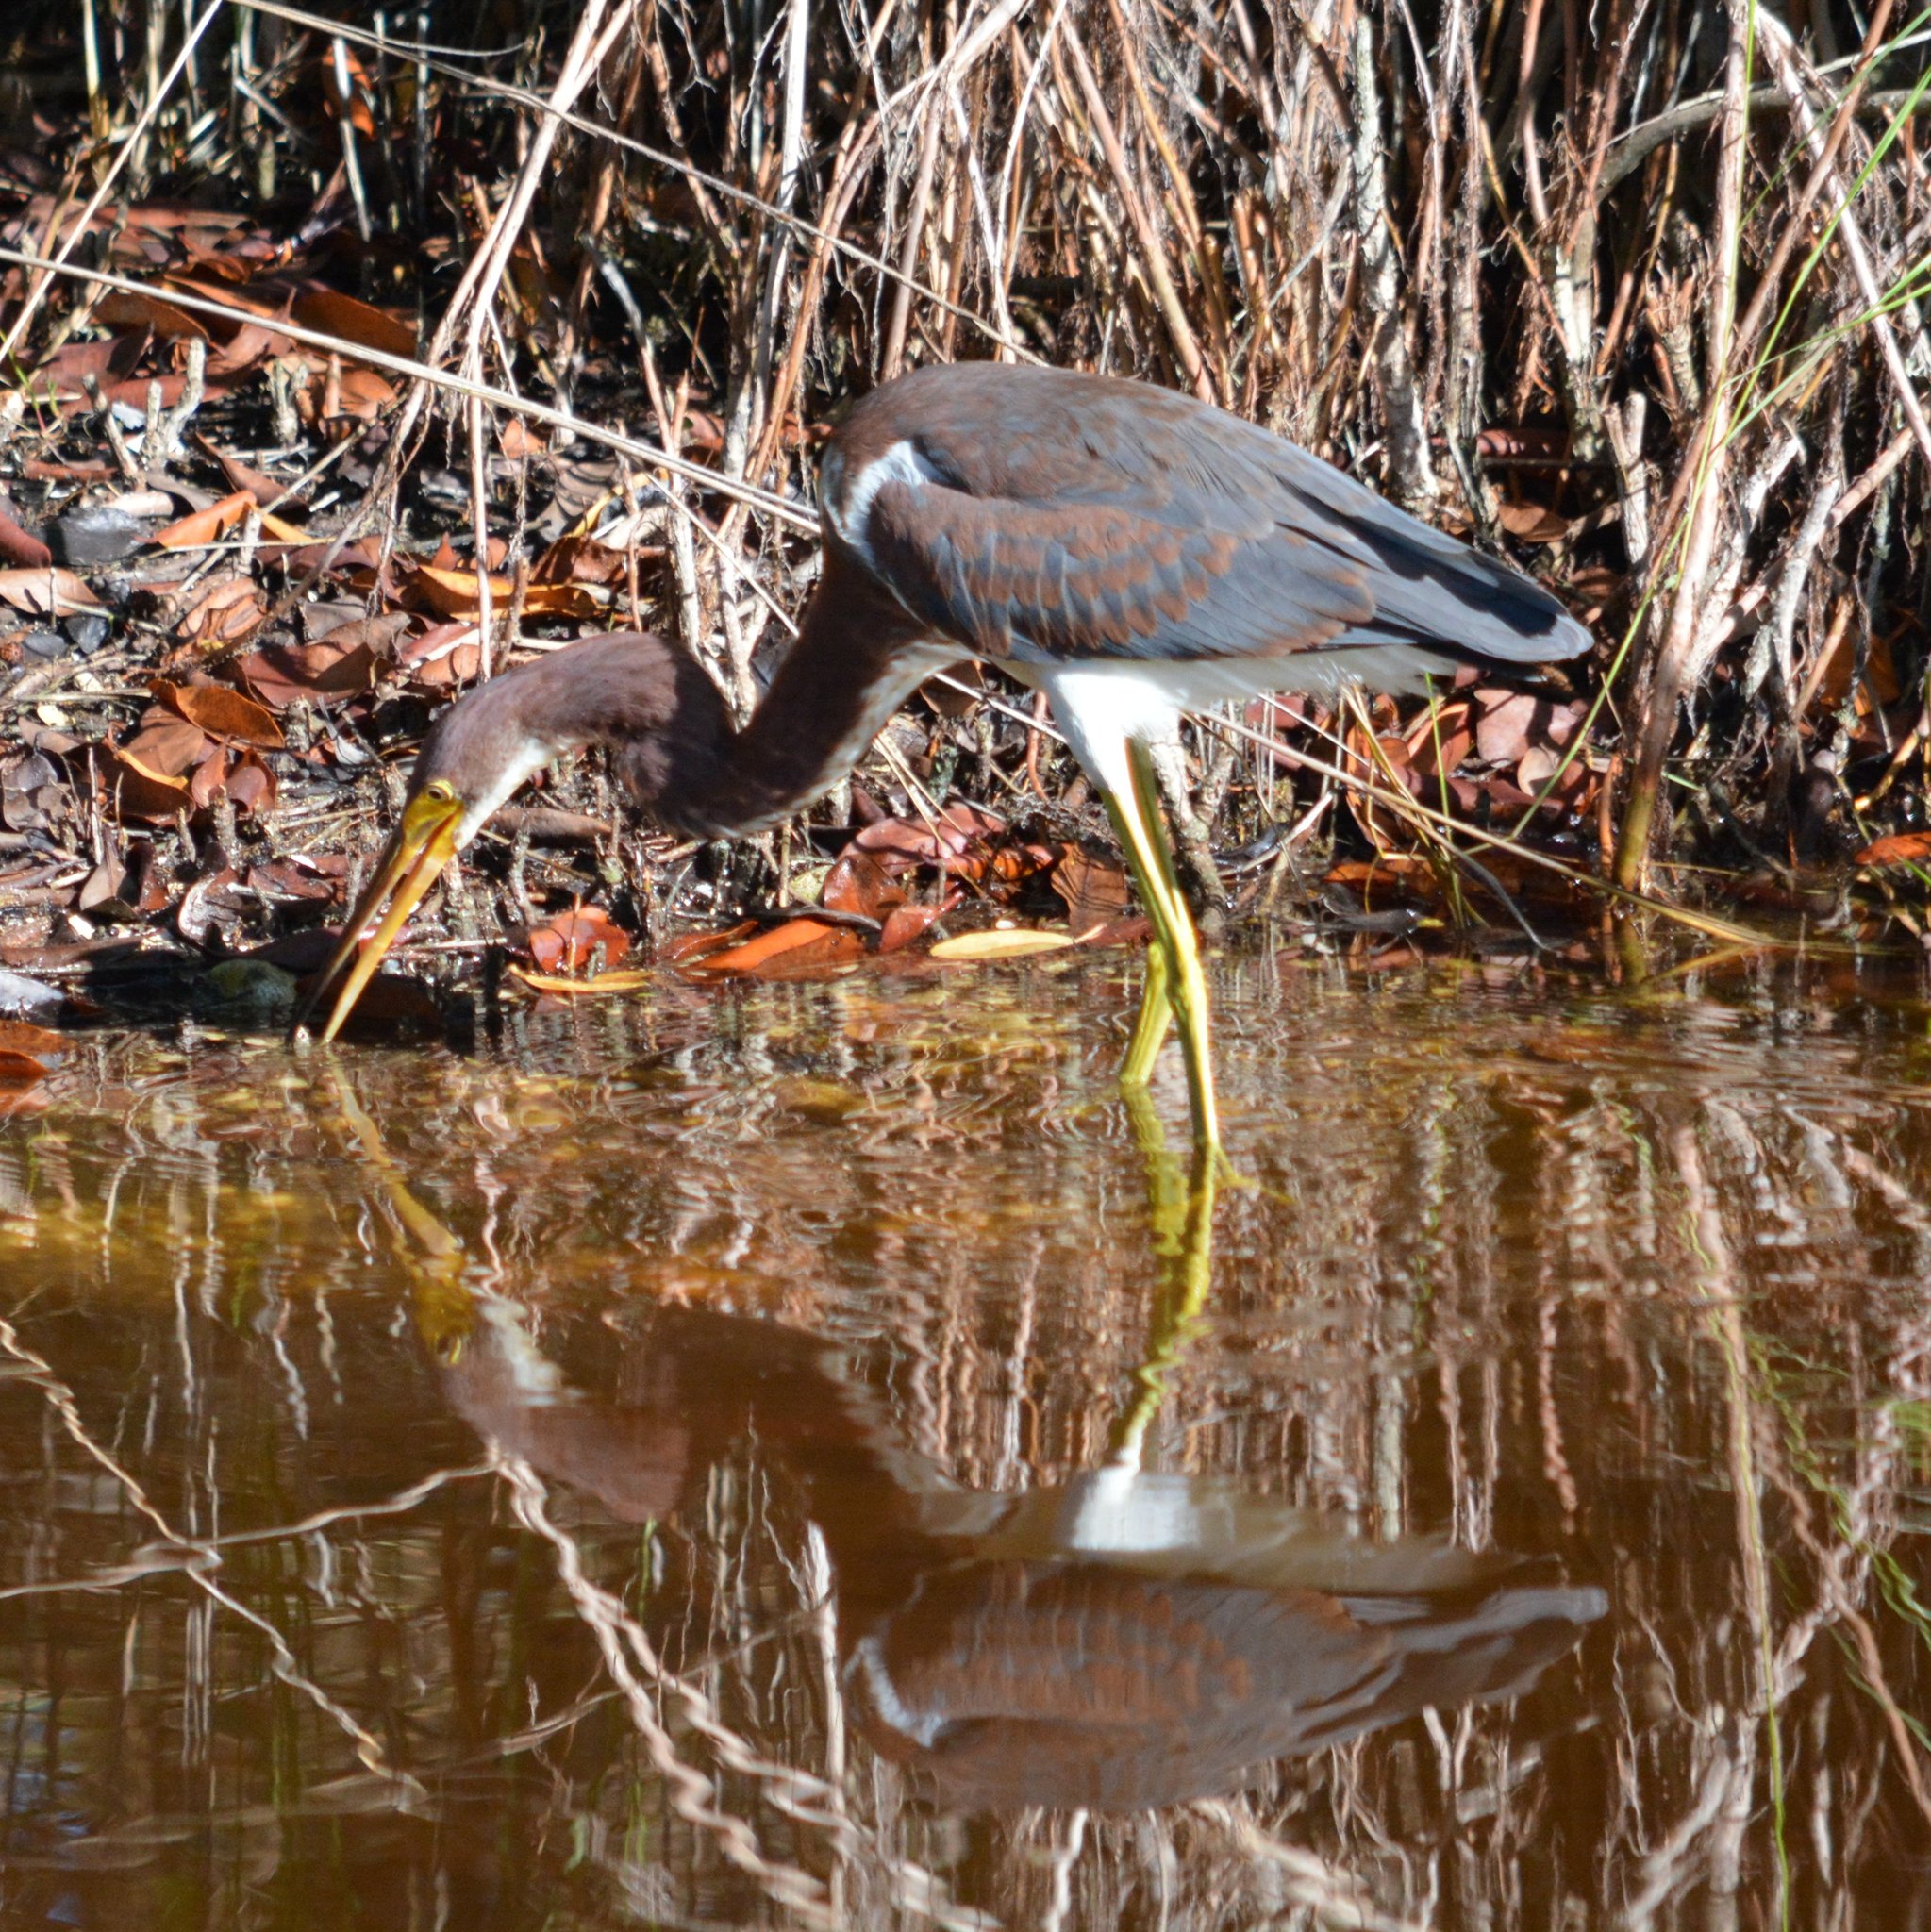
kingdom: Animalia
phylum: Chordata
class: Aves
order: Pelecaniformes
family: Ardeidae
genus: Egretta
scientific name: Egretta tricolor
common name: Tricolored heron
